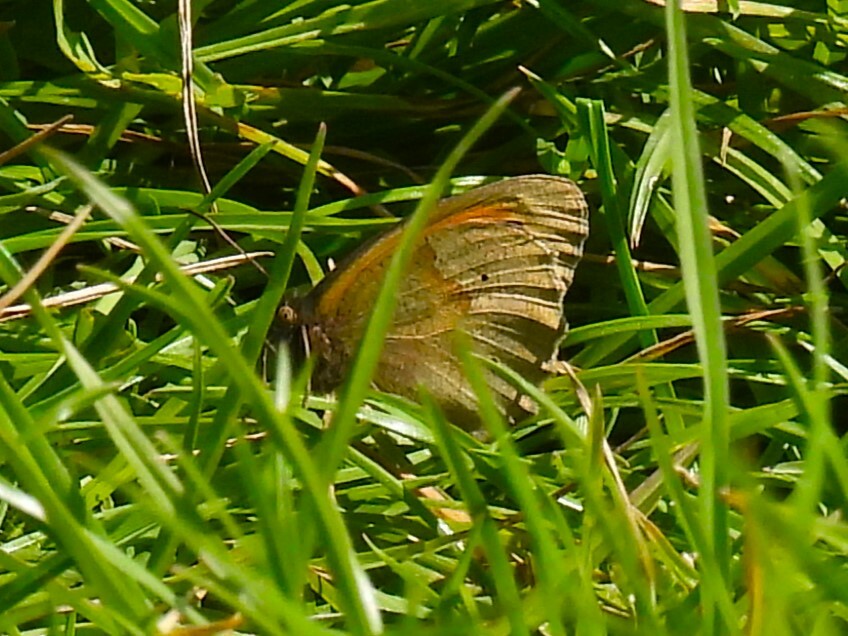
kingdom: Animalia
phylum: Arthropoda
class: Insecta
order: Lepidoptera
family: Nymphalidae
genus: Maniola
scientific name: Maniola jurtina
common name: Meadow brown
